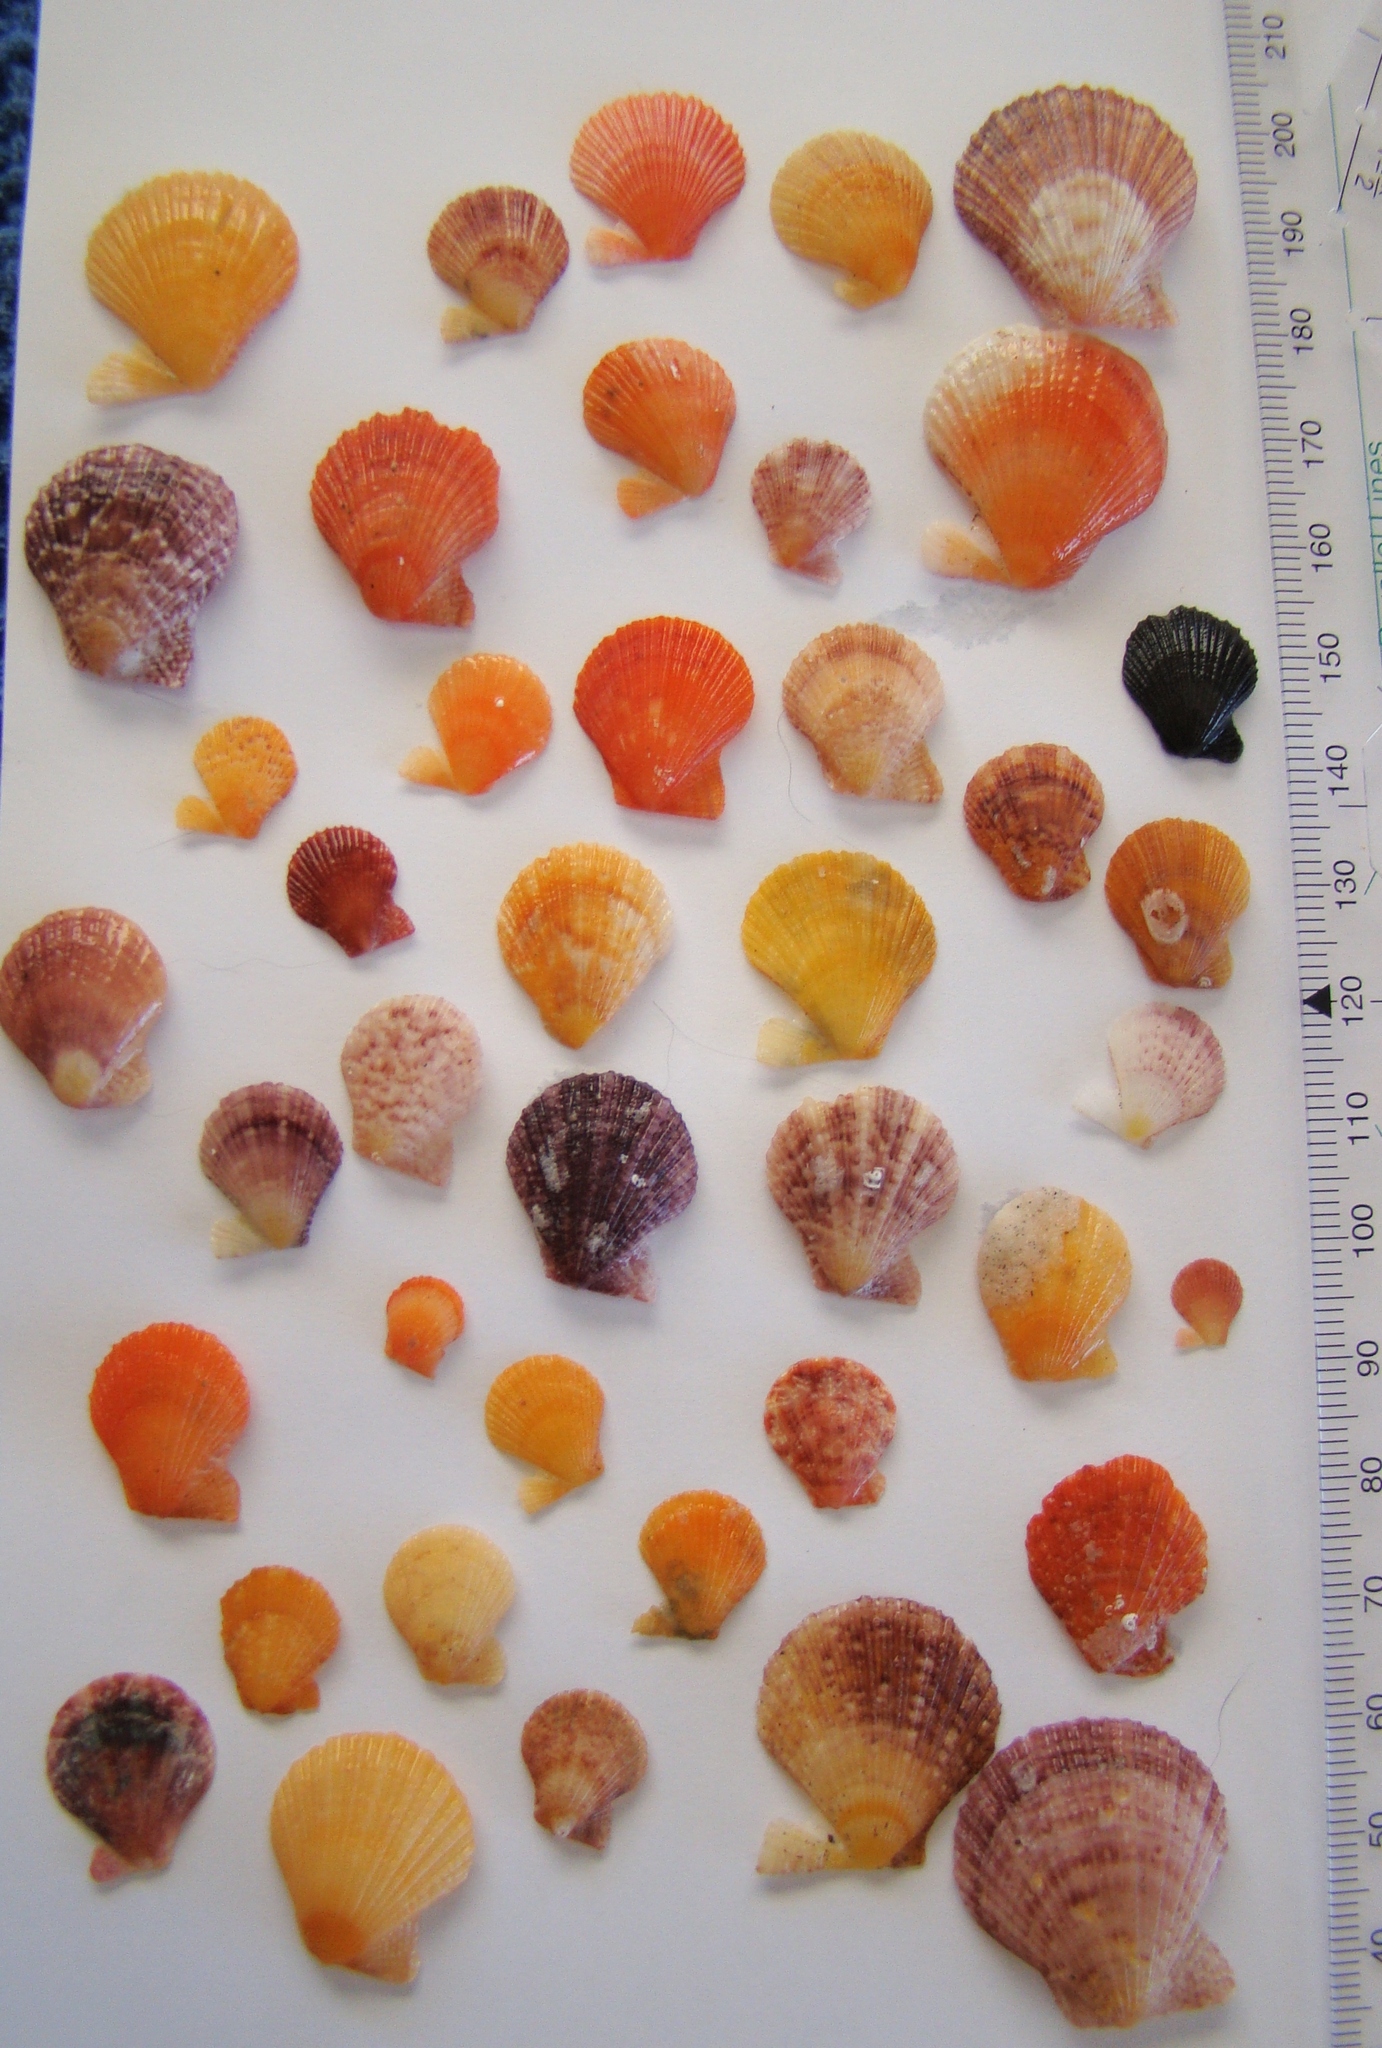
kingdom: Animalia
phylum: Mollusca
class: Bivalvia
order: Pectinida
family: Pectinidae
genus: Talochlamys
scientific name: Talochlamys zelandiae
